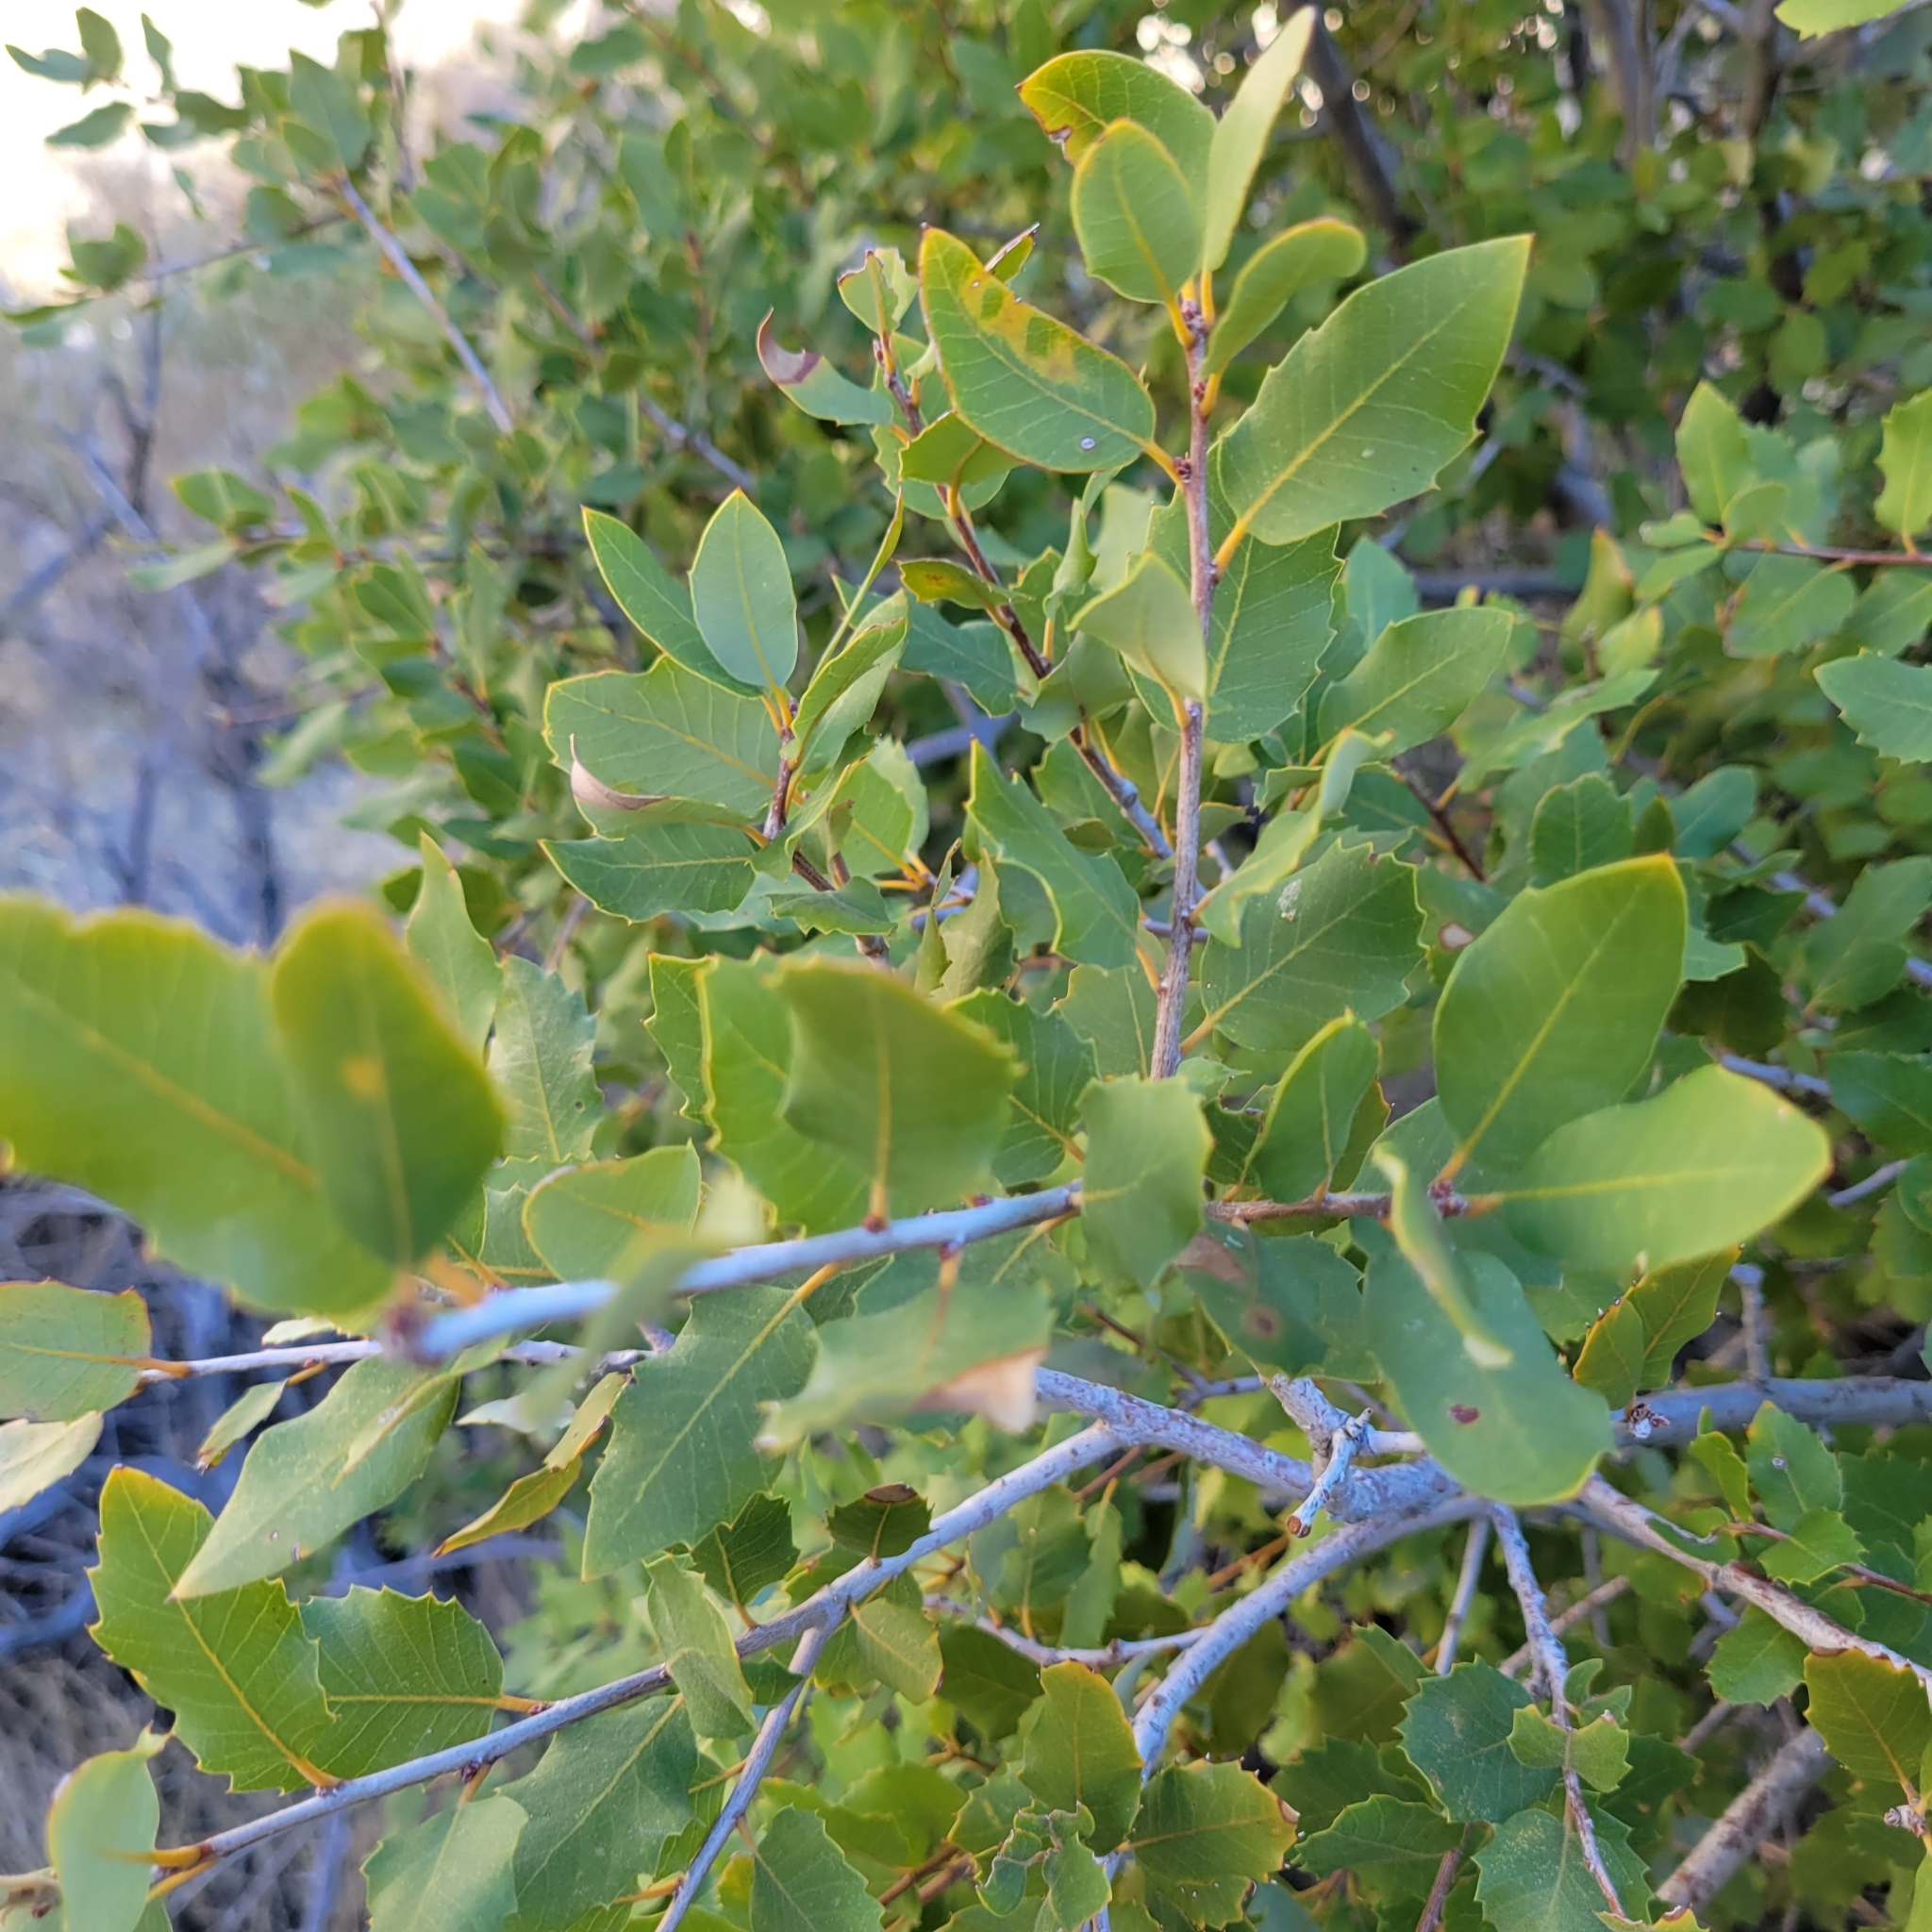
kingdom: Plantae
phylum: Tracheophyta
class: Magnoliopsida
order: Fagales
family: Fagaceae
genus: Quercus
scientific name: Quercus chrysolepis
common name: Canyon live oak
